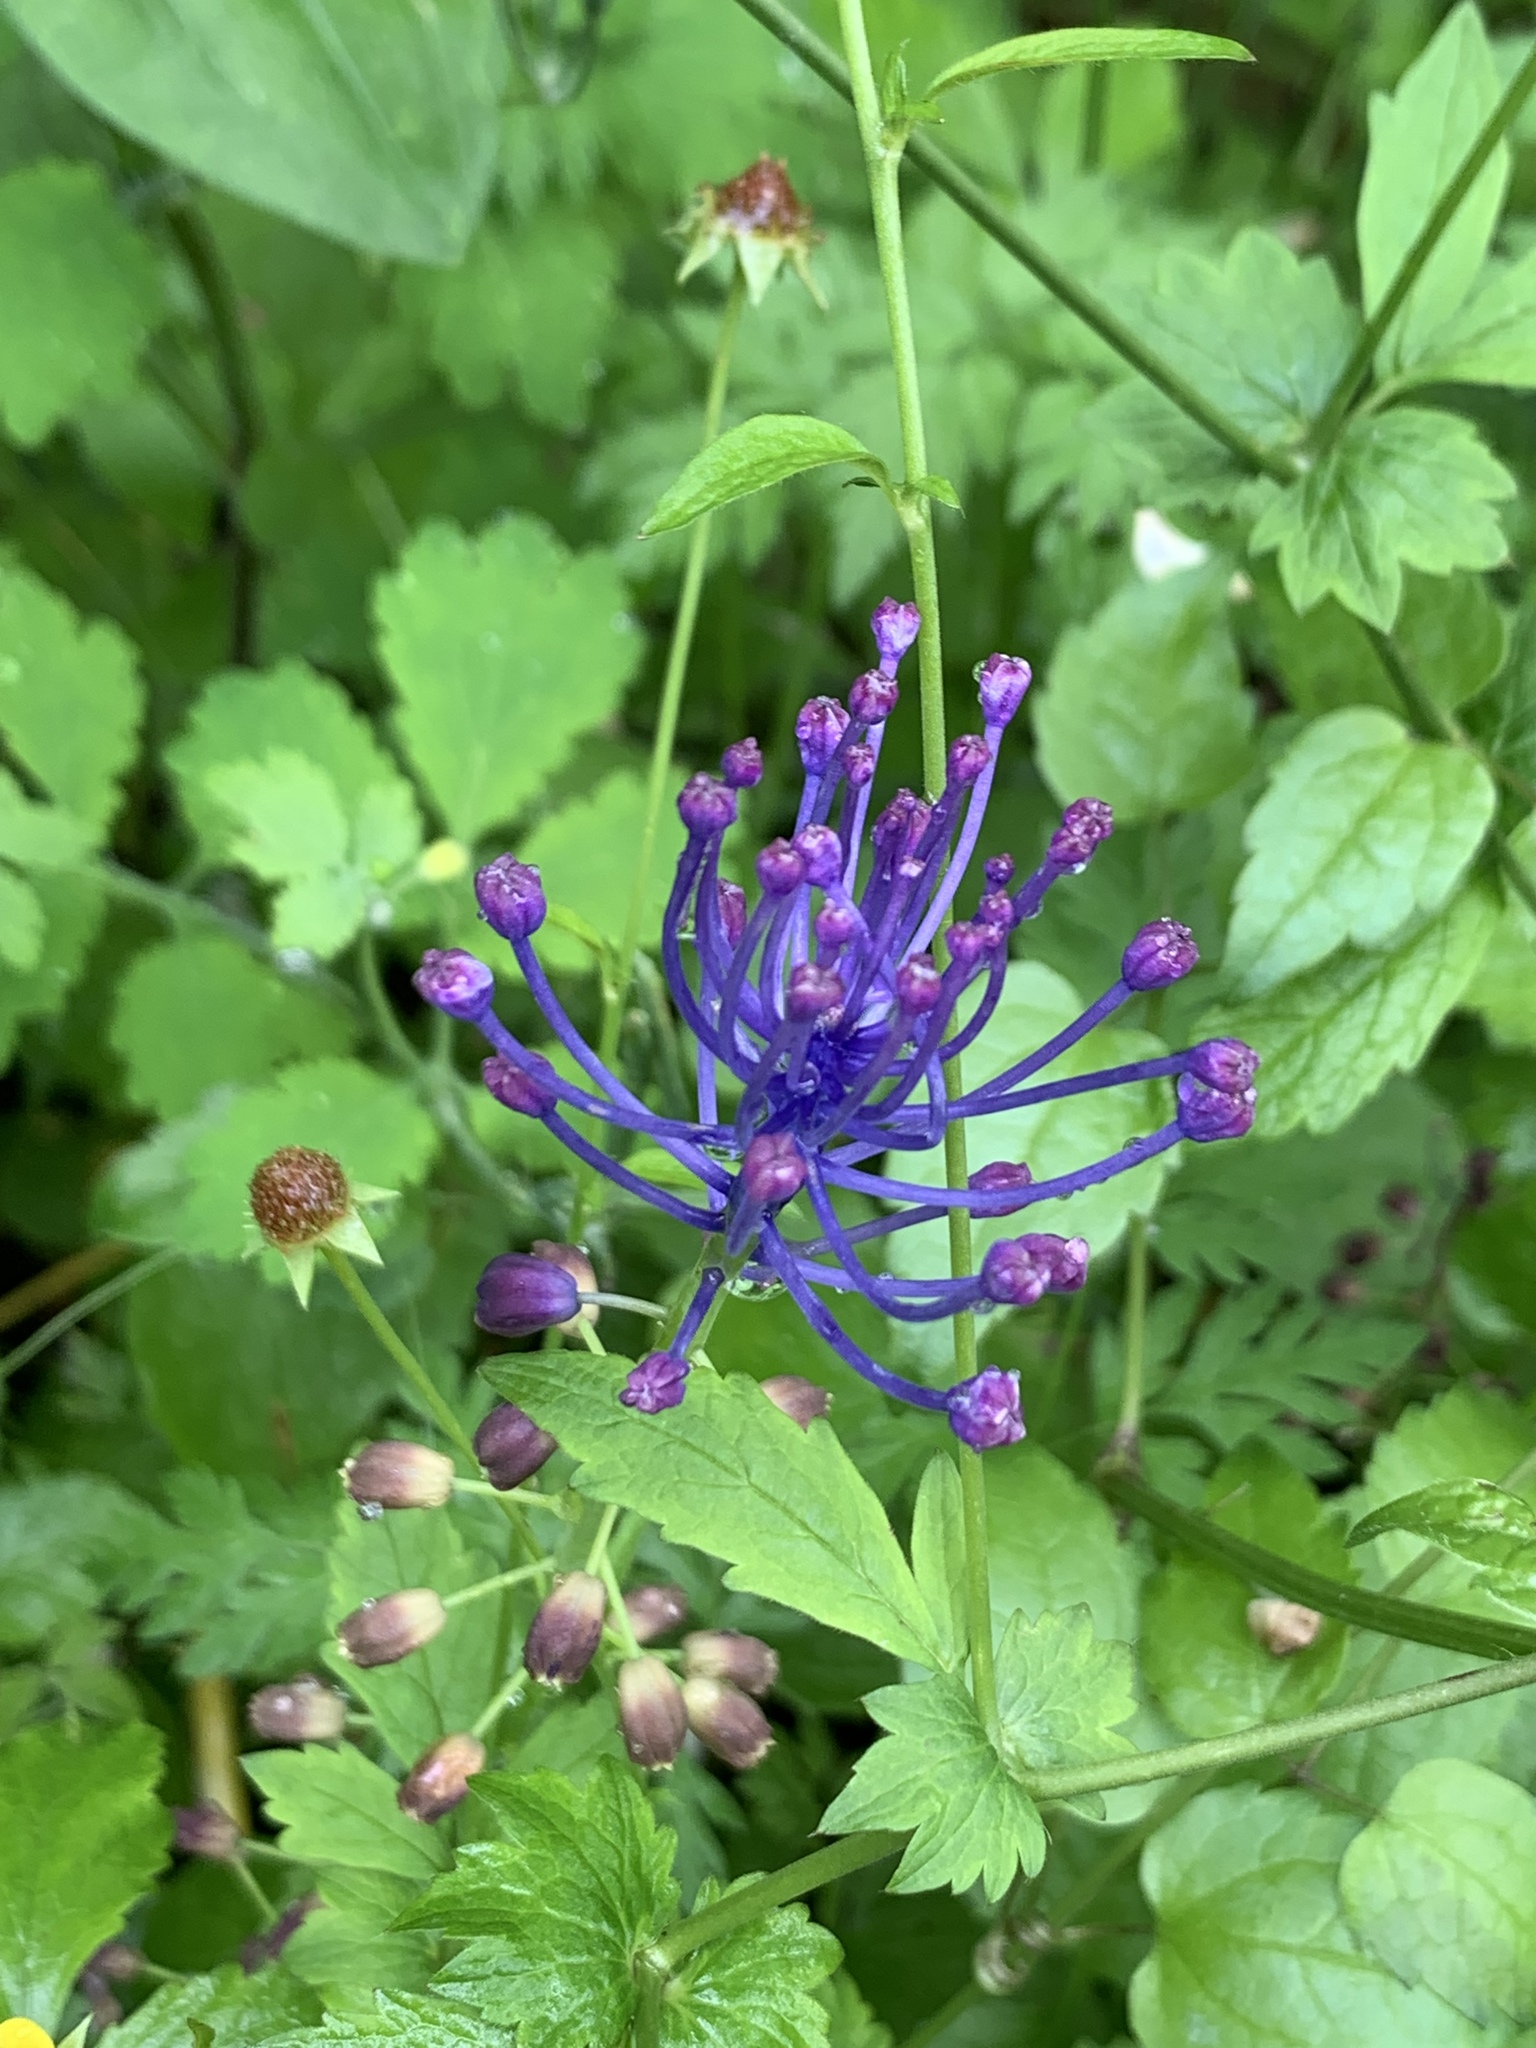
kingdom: Plantae
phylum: Tracheophyta
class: Liliopsida
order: Asparagales
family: Asparagaceae
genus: Muscari
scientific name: Muscari comosum
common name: Tassel hyacinth
